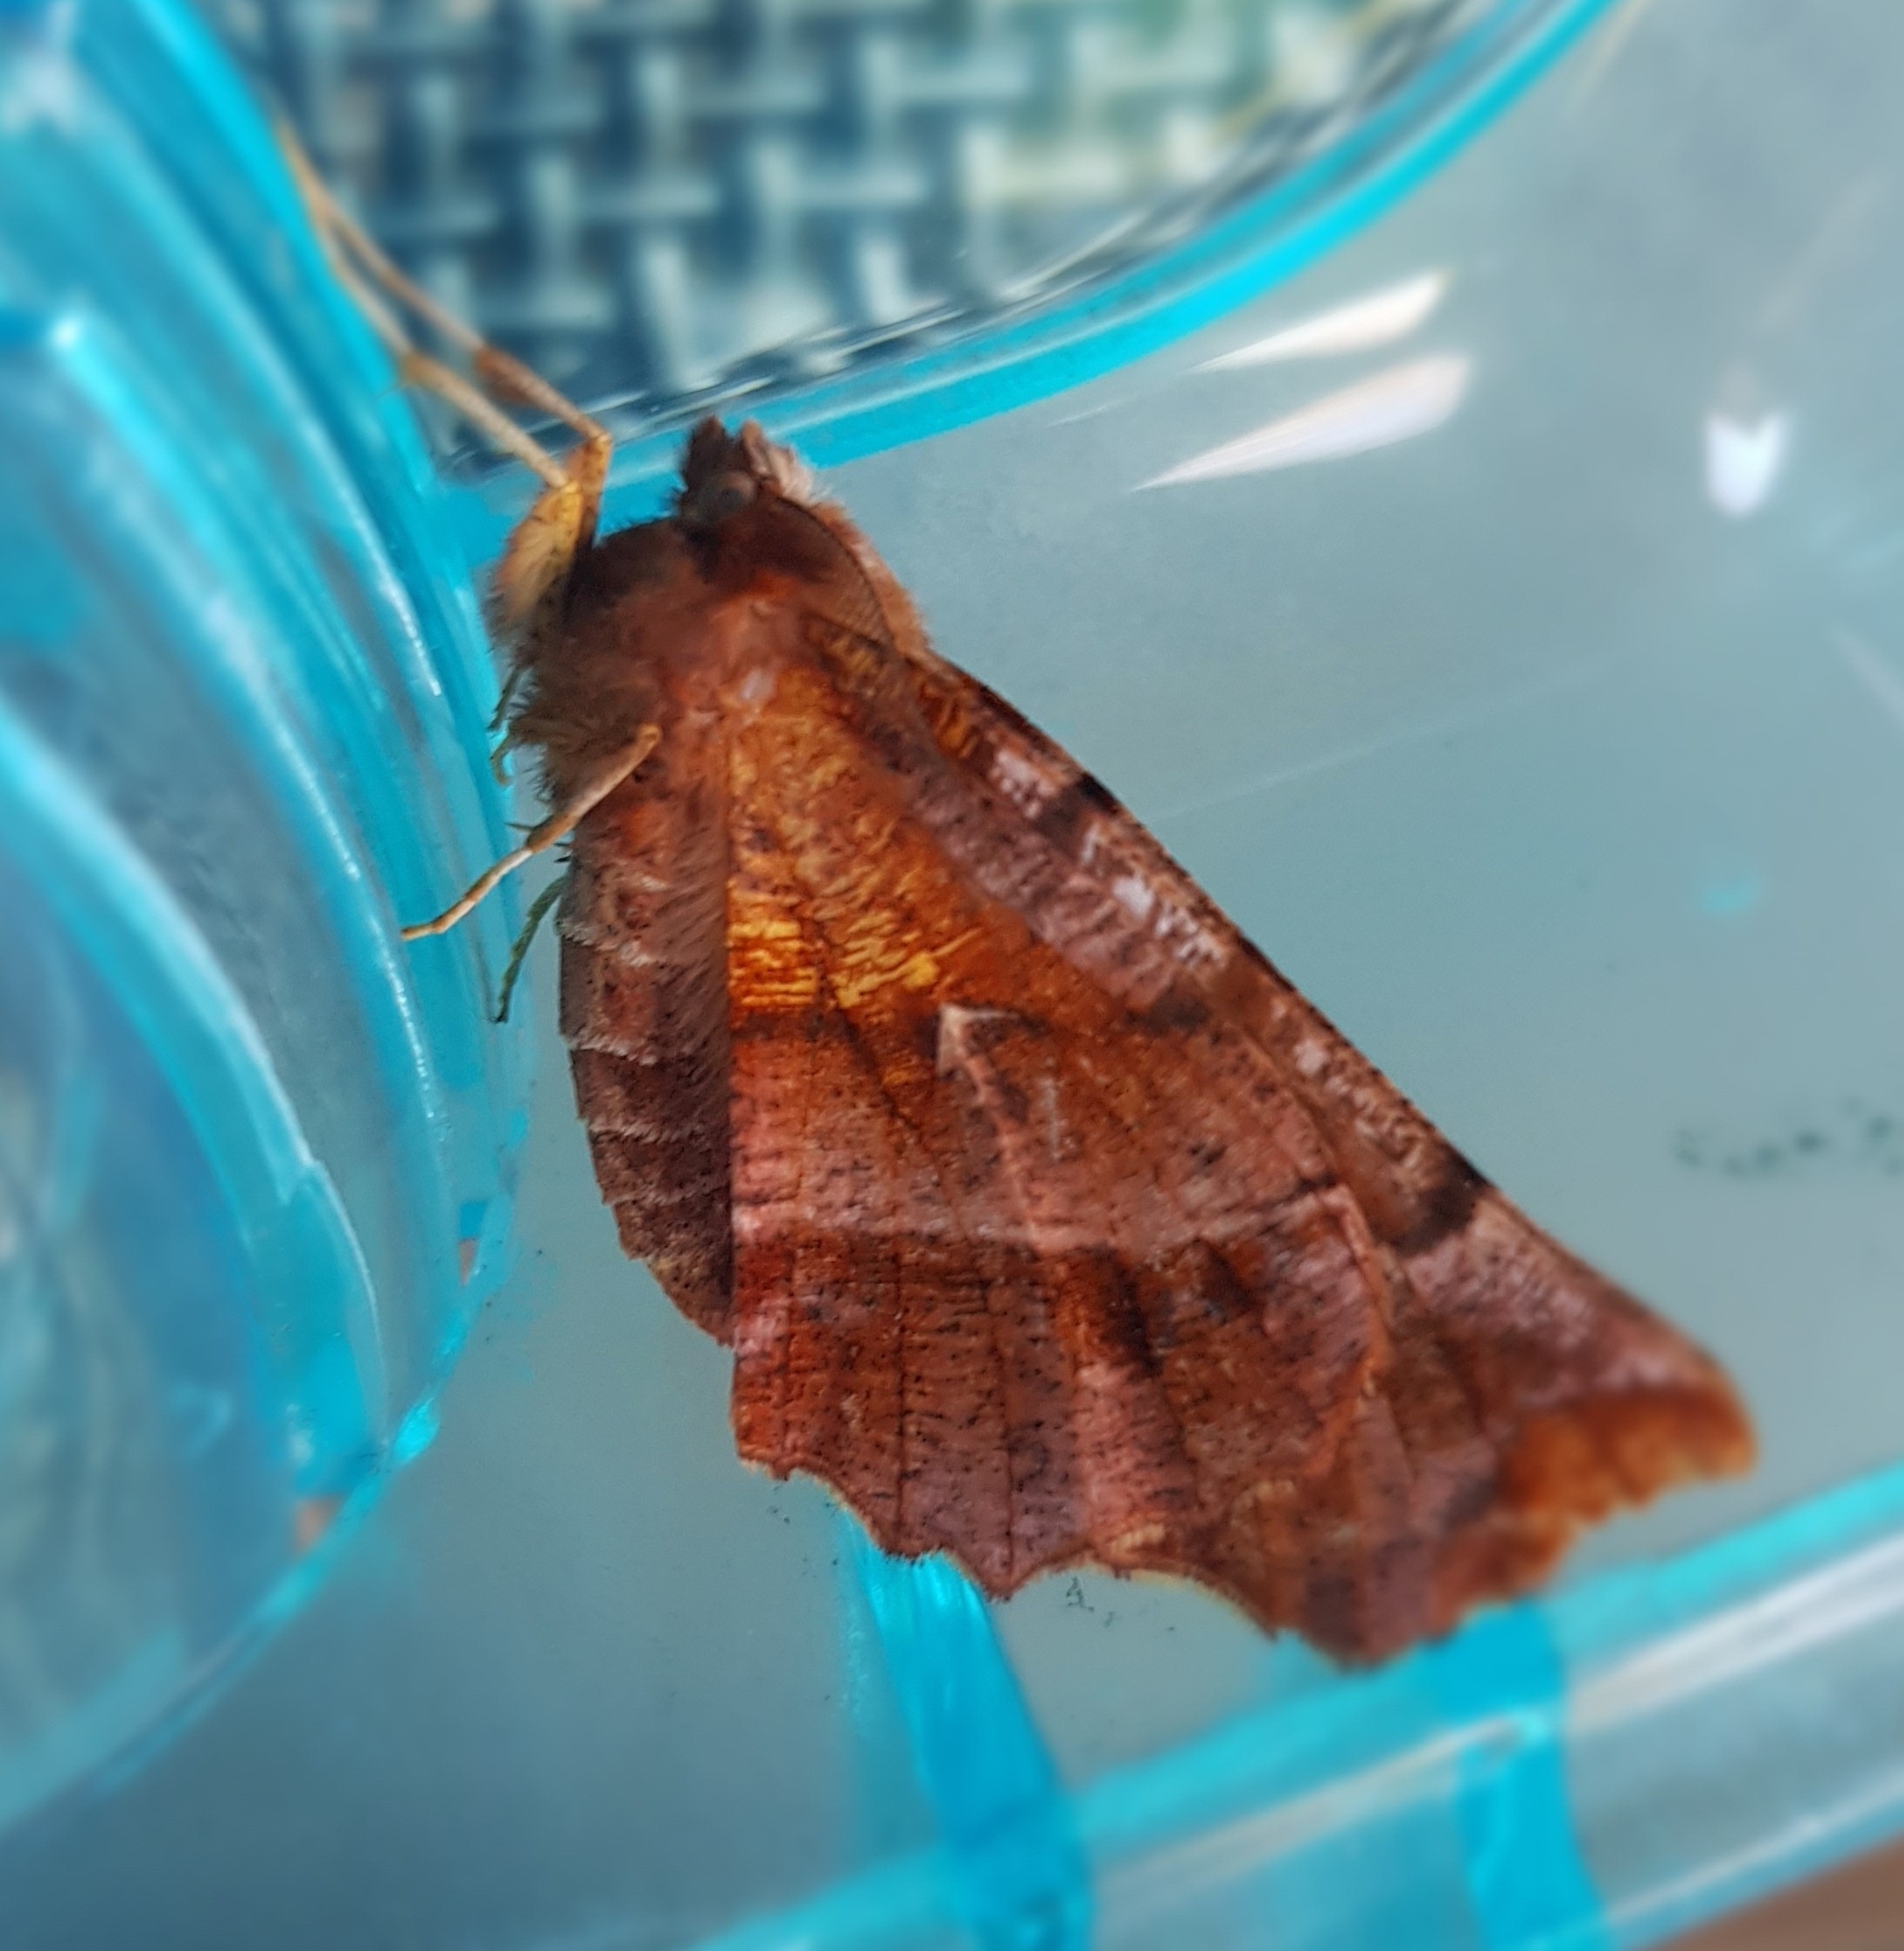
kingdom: Animalia
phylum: Arthropoda
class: Insecta
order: Lepidoptera
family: Geometridae
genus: Selenia
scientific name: Selenia dentaria
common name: Early thorn
